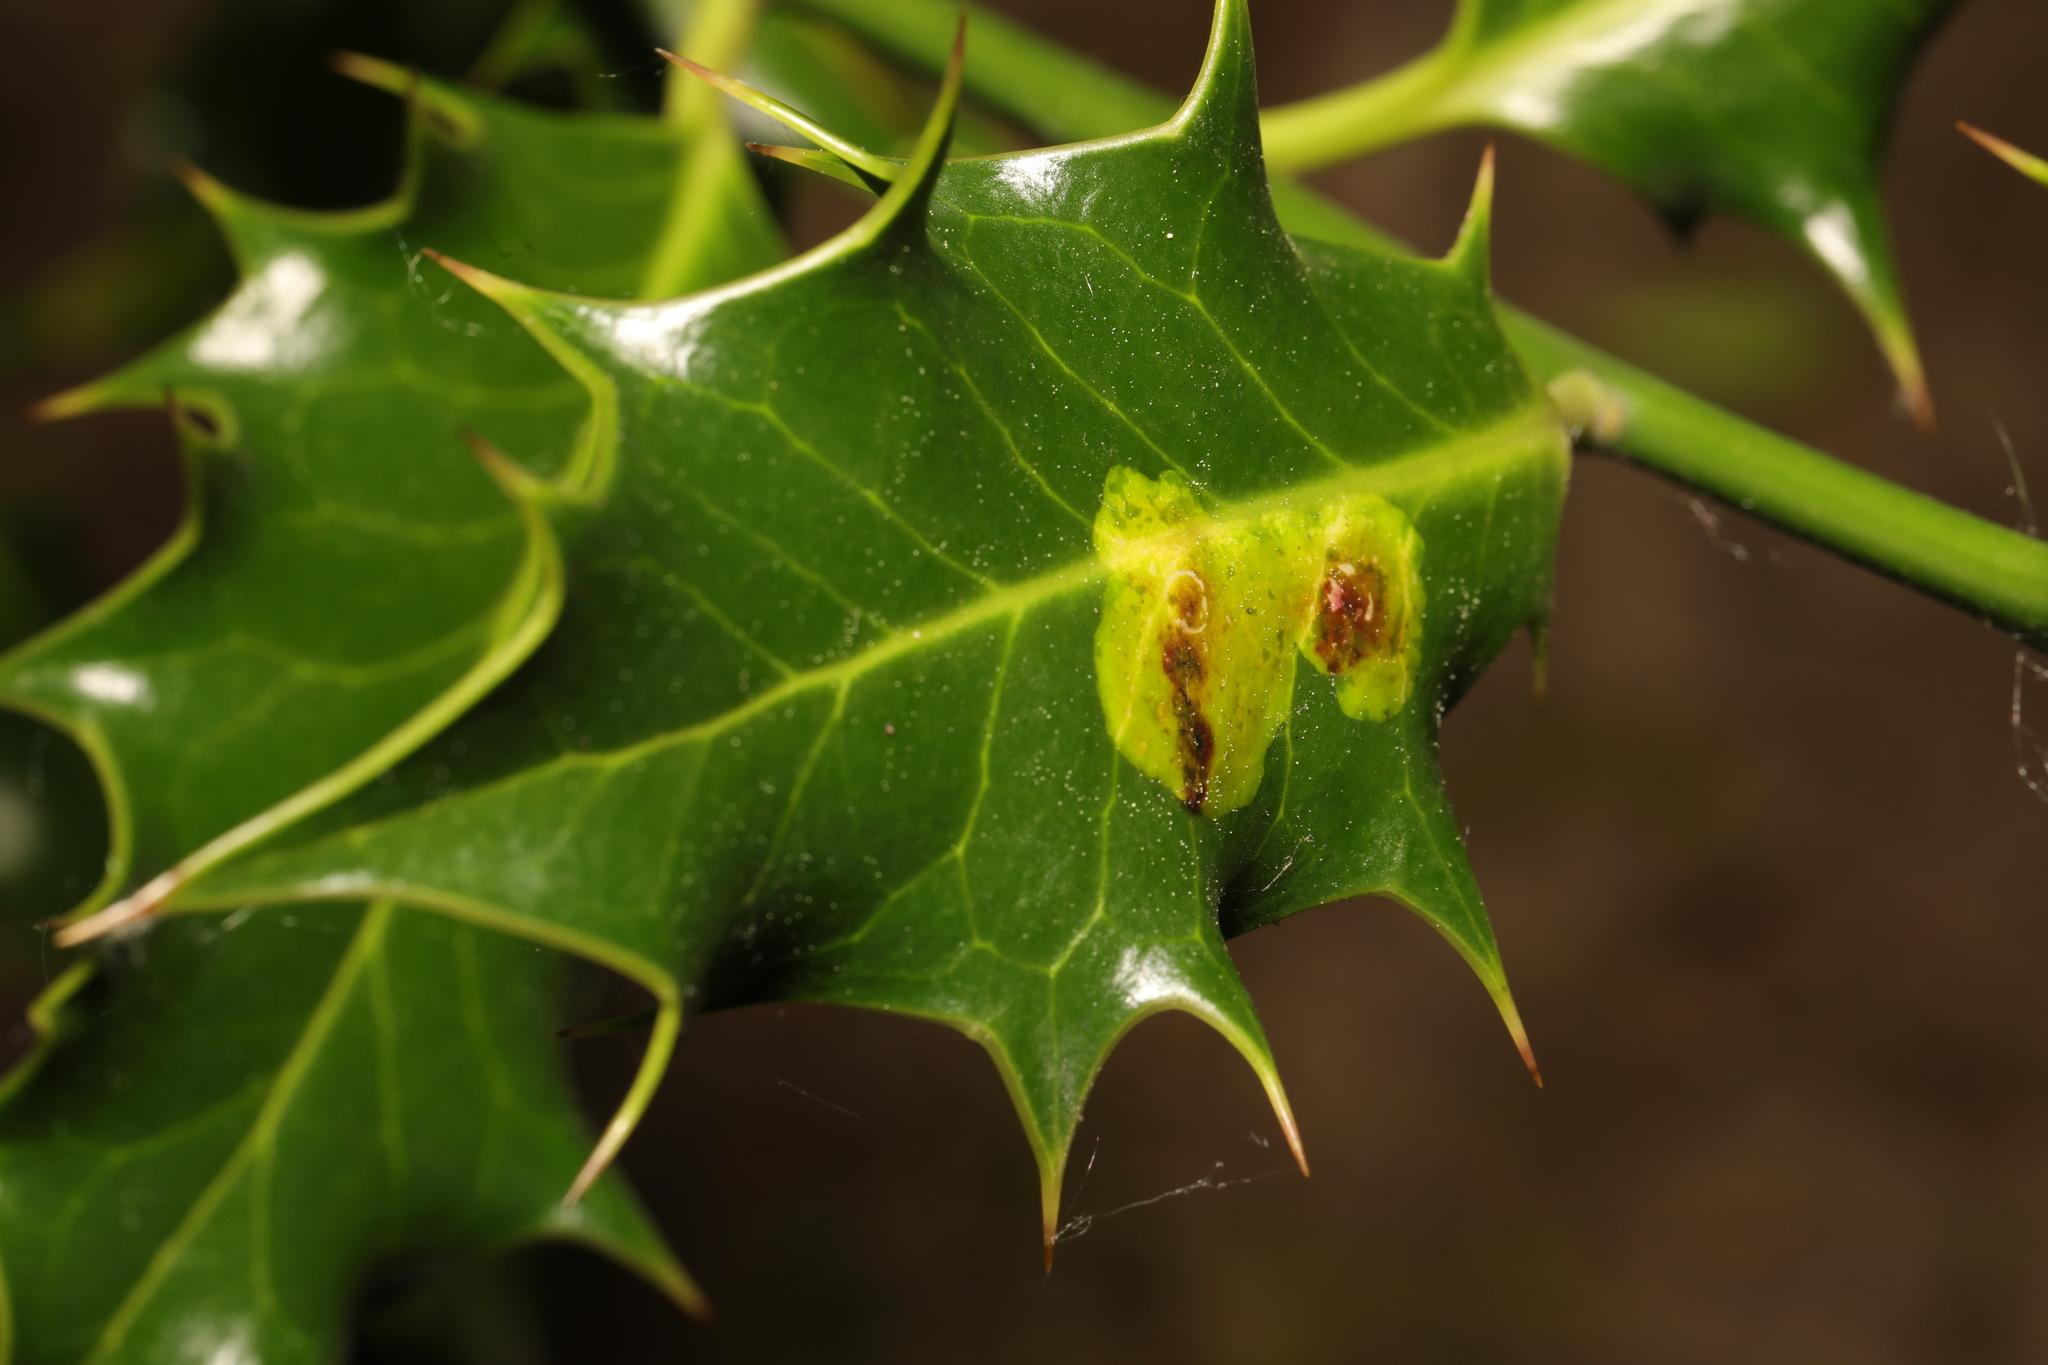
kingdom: Animalia
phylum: Arthropoda
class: Insecta
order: Diptera
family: Agromyzidae
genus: Phytomyza
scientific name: Phytomyza ilicis
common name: Holly leafminer
